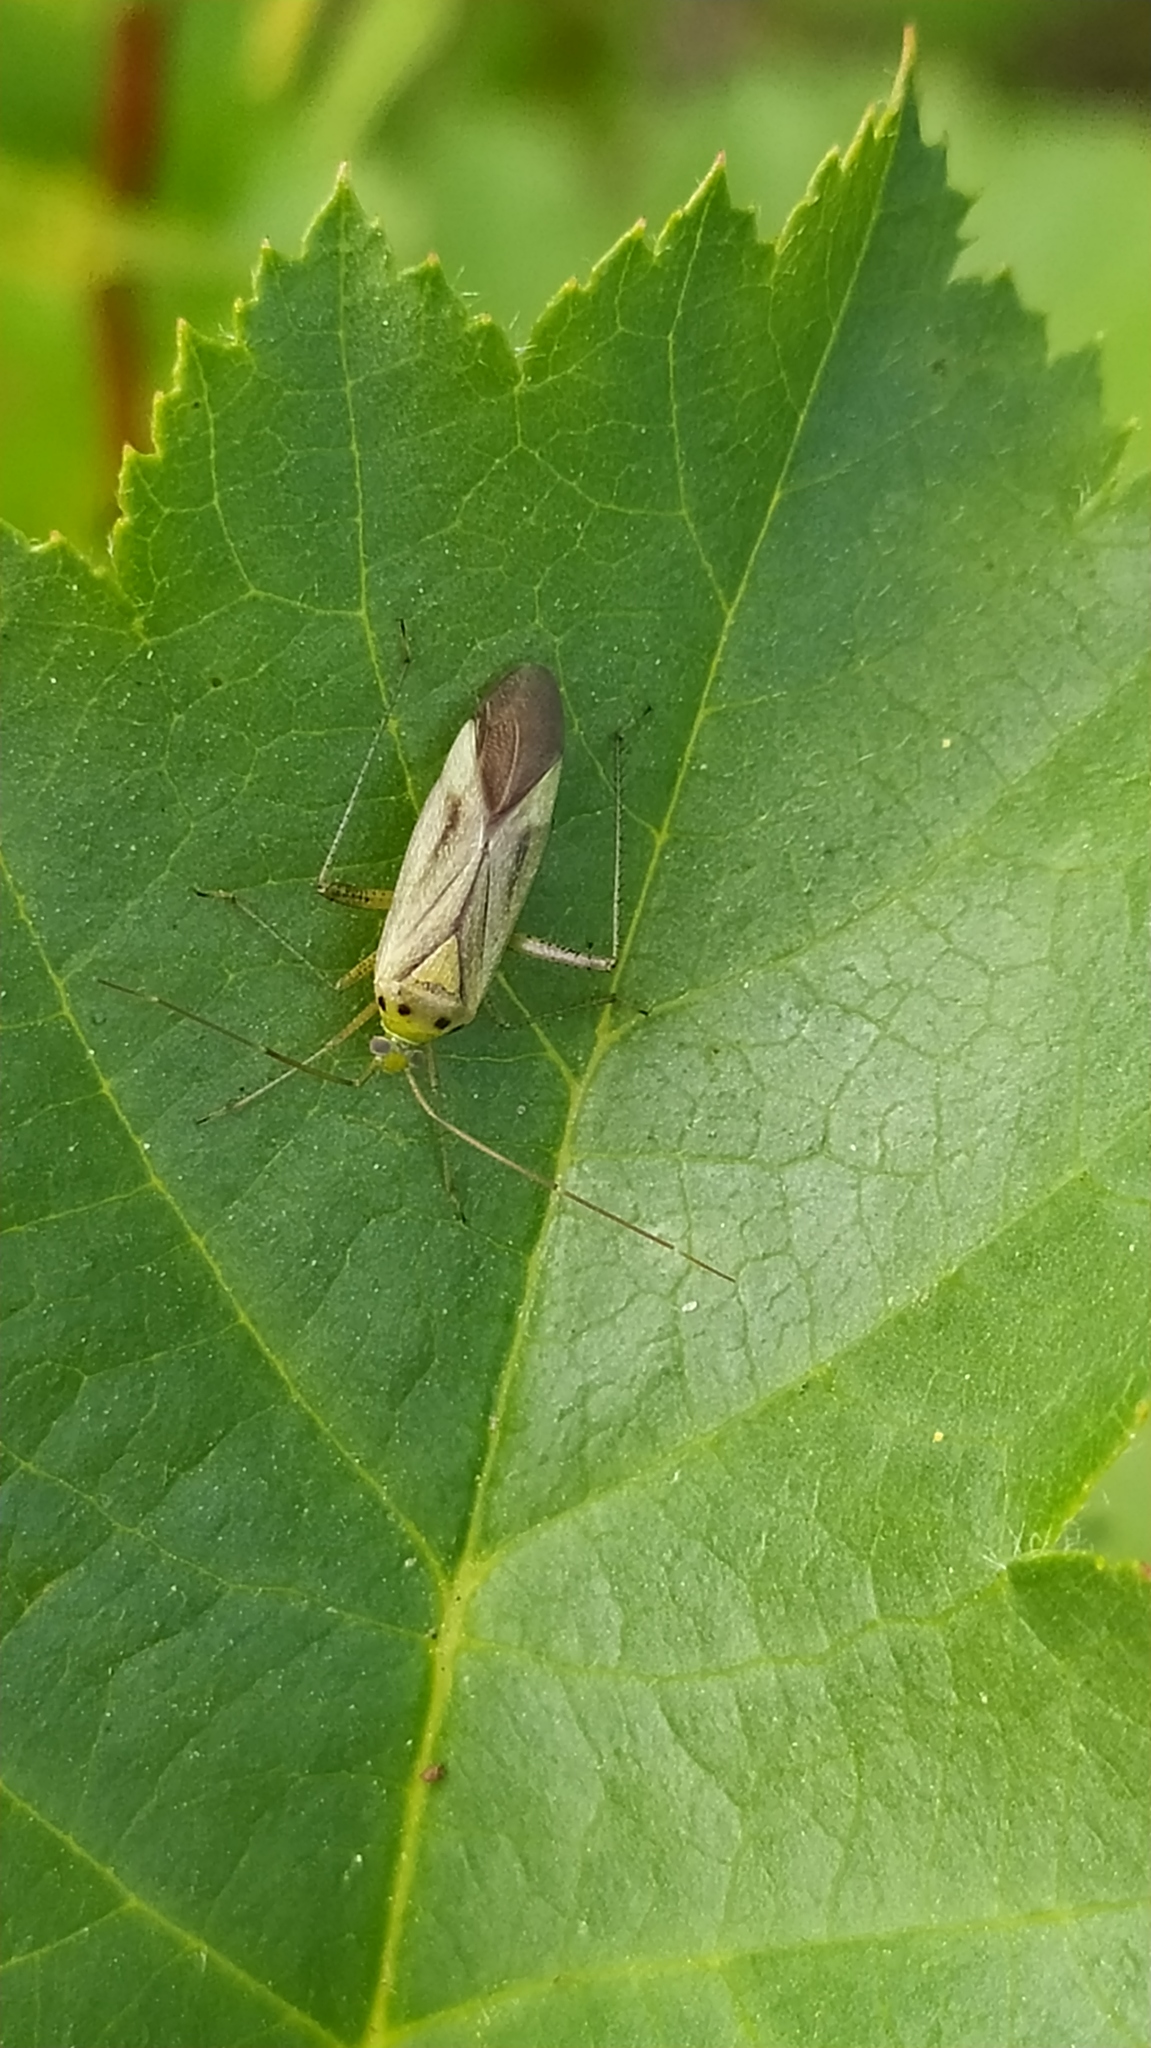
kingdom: Animalia
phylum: Arthropoda
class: Insecta
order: Hemiptera
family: Miridae
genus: Adelphocoris
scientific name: Adelphocoris quadripunctatus
